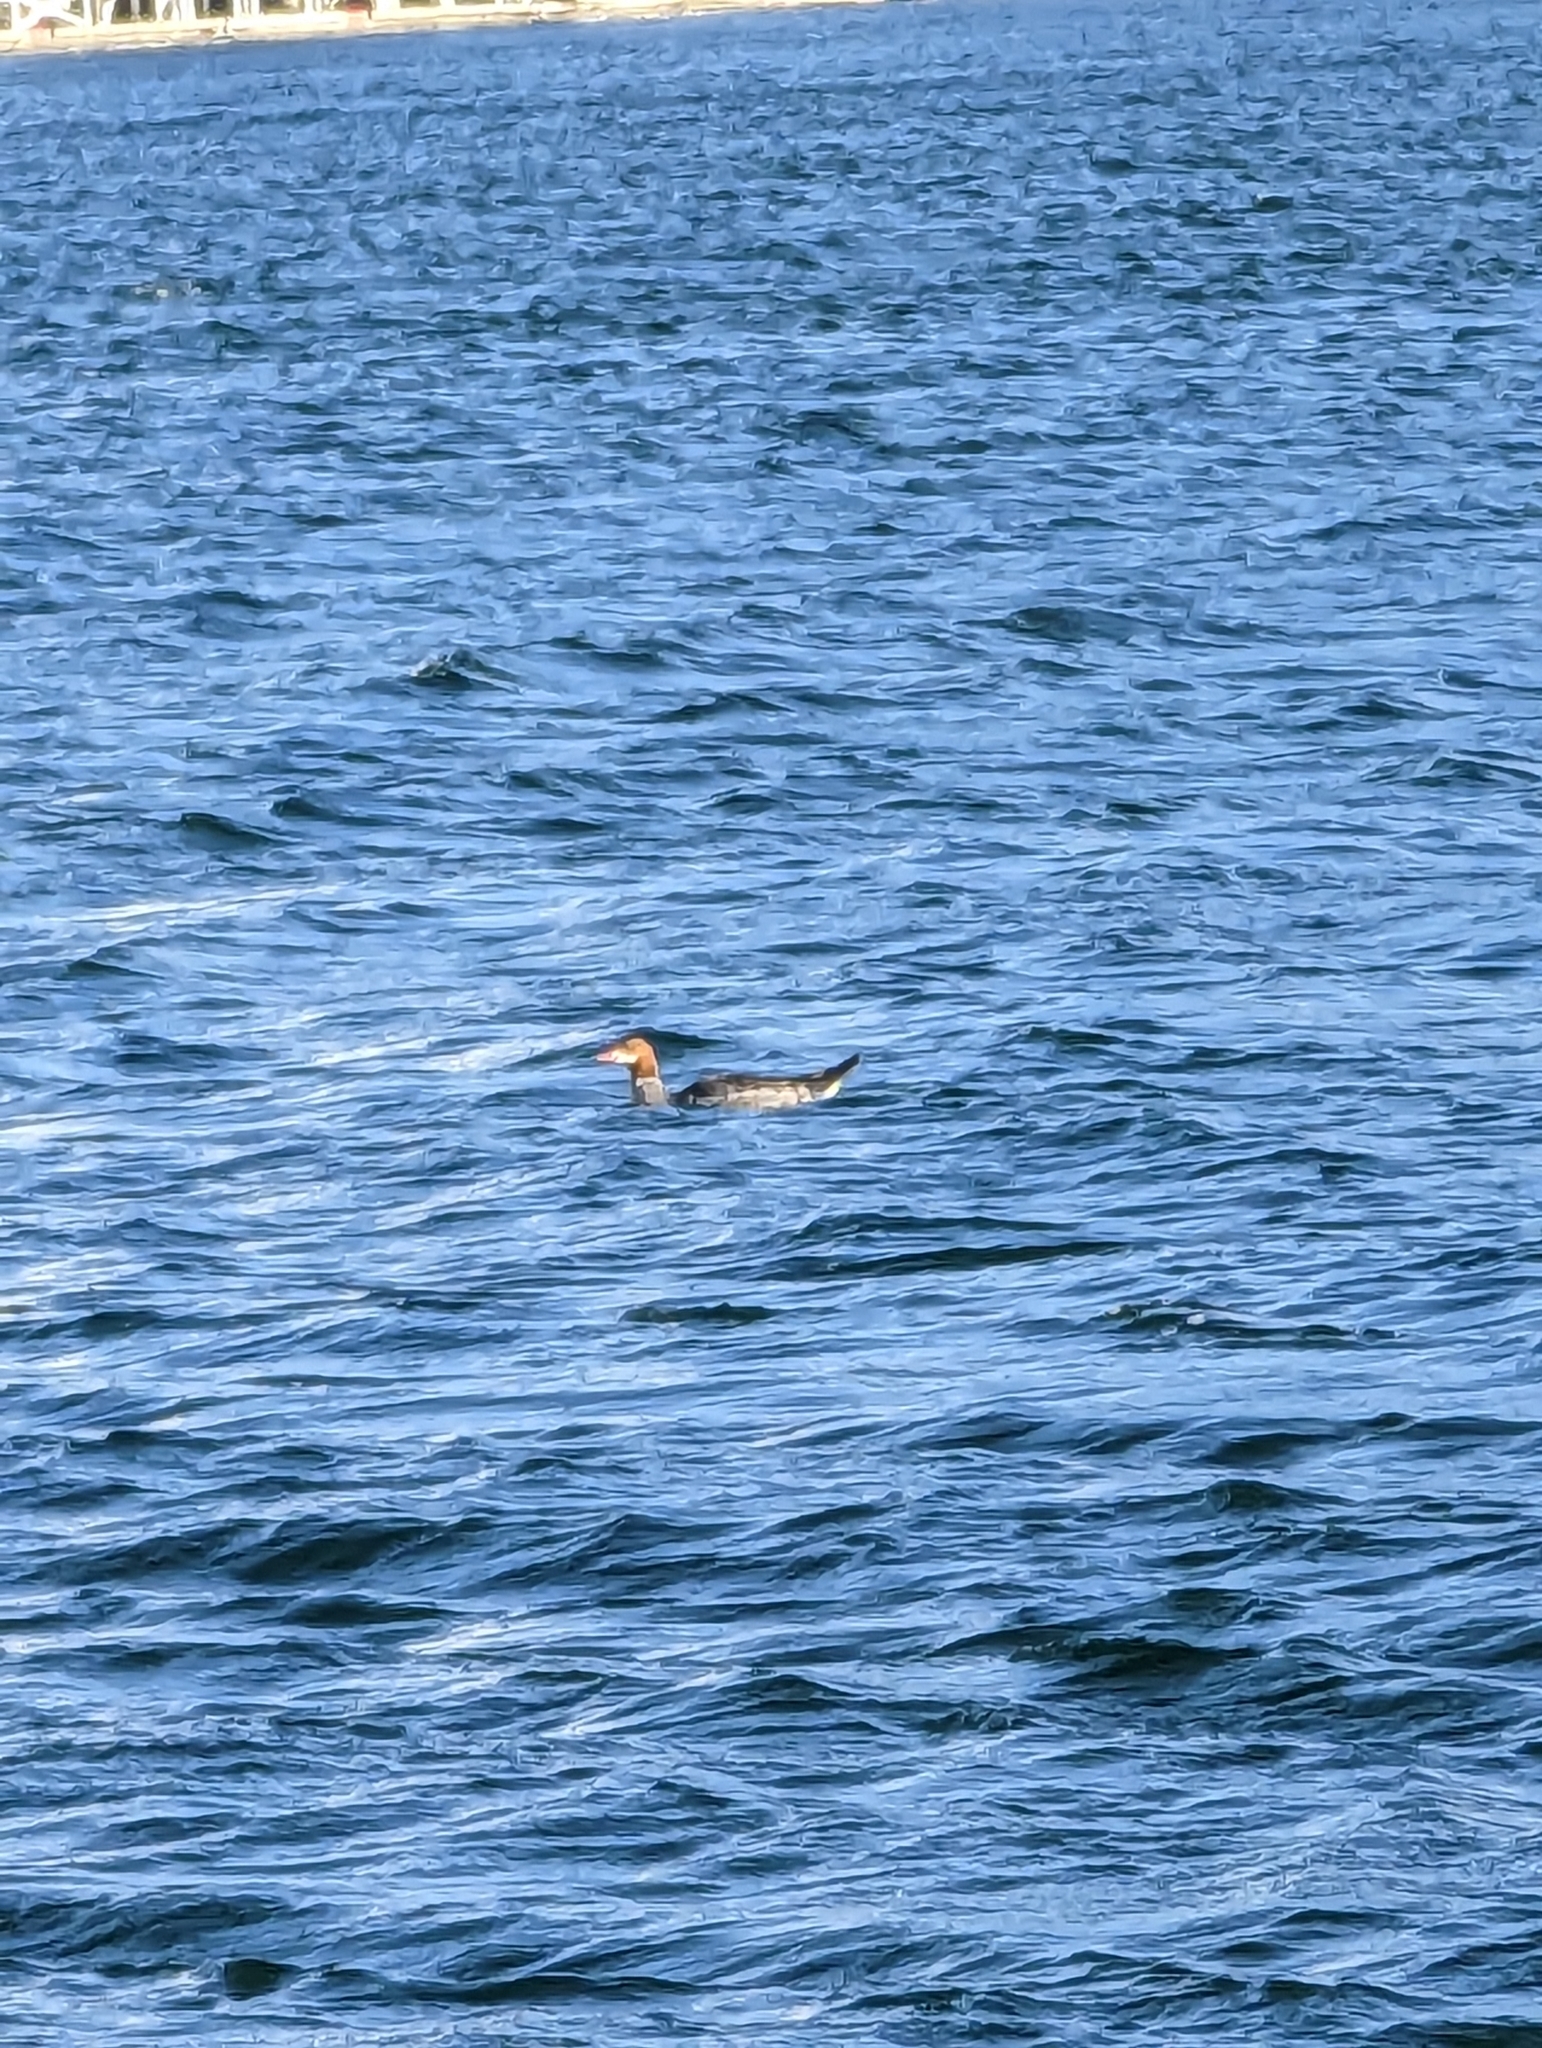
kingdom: Animalia
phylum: Chordata
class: Aves
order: Anseriformes
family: Anatidae
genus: Mergus
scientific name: Mergus merganser
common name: Common merganser
